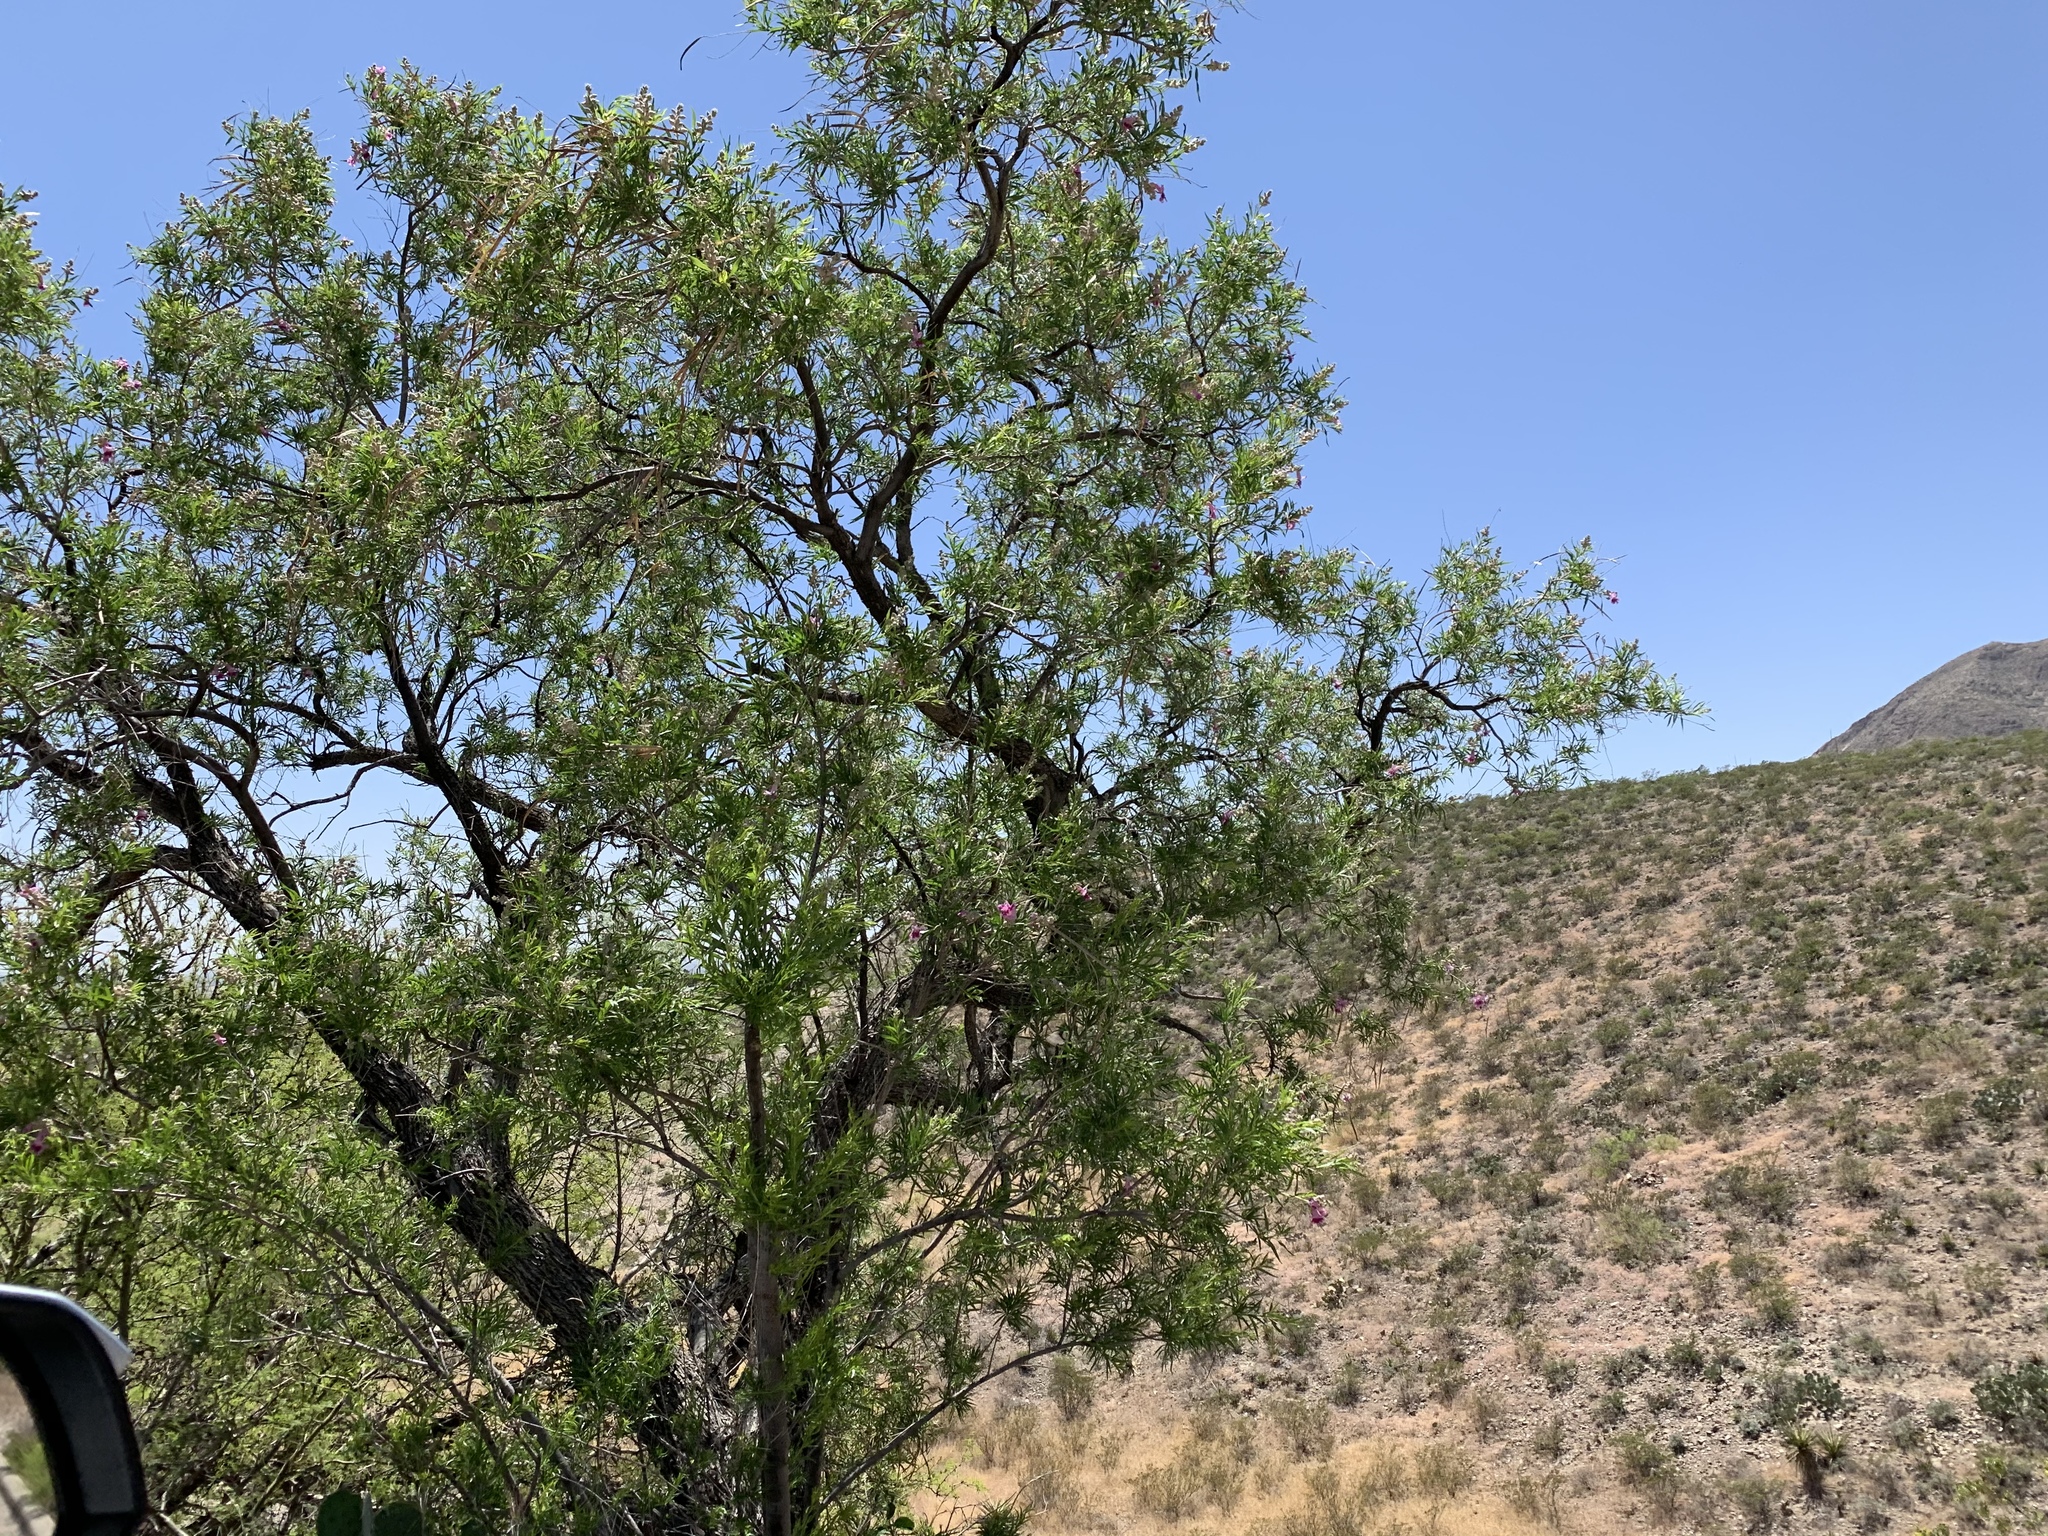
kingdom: Plantae
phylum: Tracheophyta
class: Magnoliopsida
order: Lamiales
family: Bignoniaceae
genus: Chilopsis
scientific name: Chilopsis linearis
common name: Desert-willow
